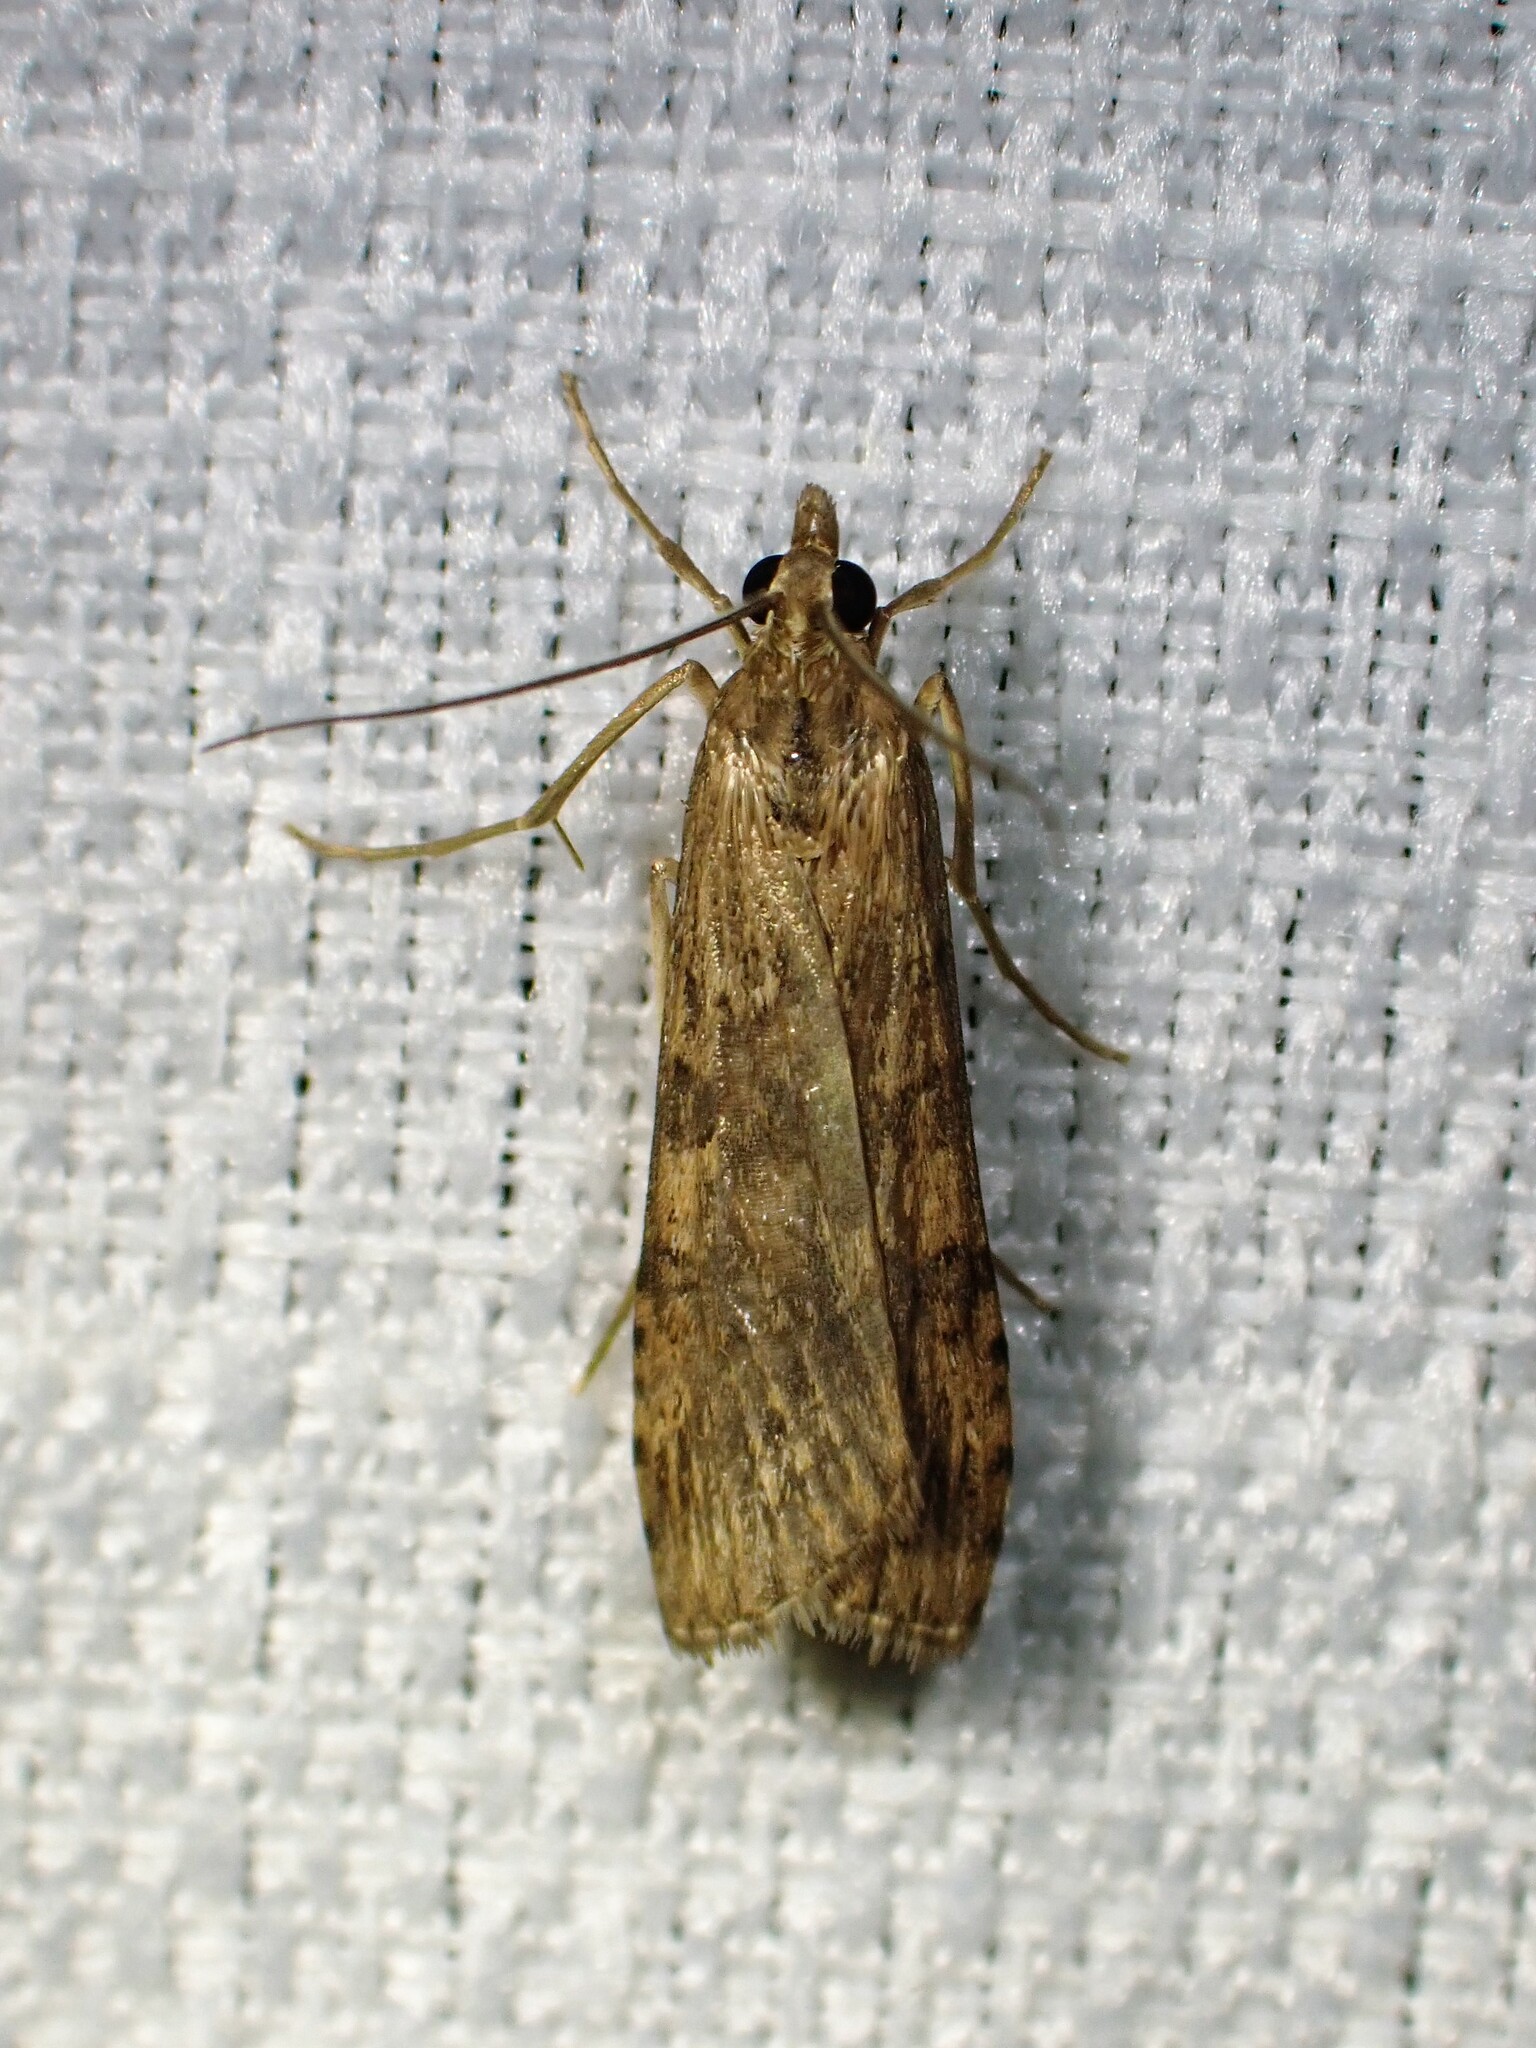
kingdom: Animalia
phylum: Arthropoda
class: Insecta
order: Lepidoptera
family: Crambidae
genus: Nomophila
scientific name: Nomophila nearctica
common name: American rush veneer
